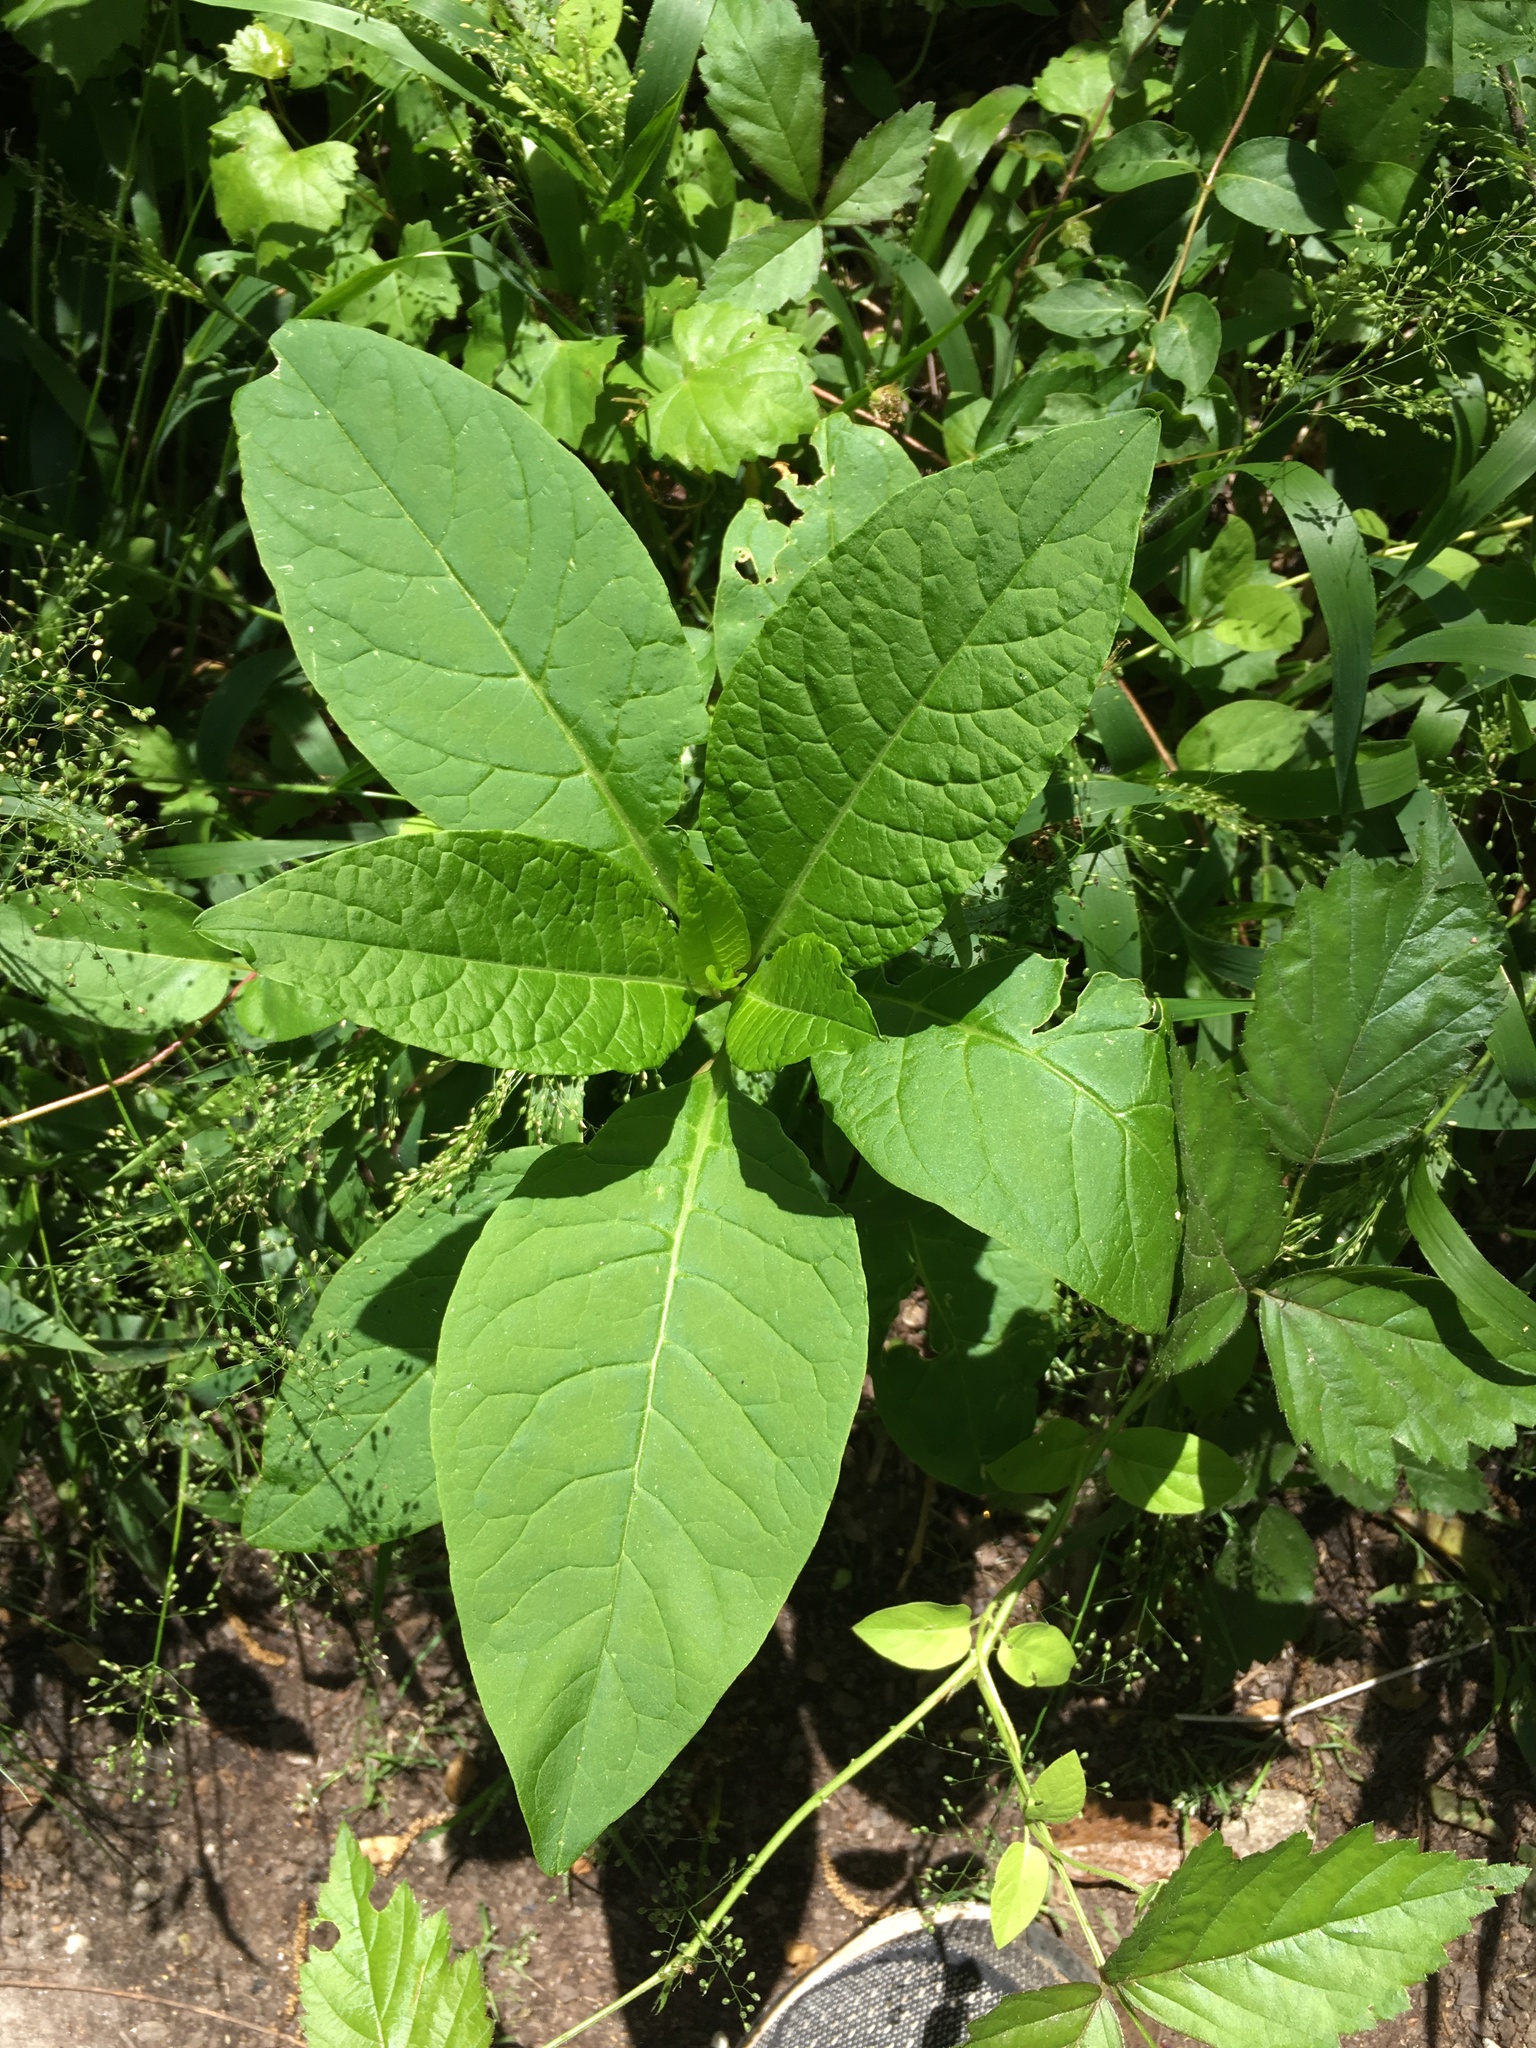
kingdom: Plantae
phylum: Tracheophyta
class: Magnoliopsida
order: Caryophyllales
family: Phytolaccaceae
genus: Phytolacca
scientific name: Phytolacca americana
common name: American pokeweed
